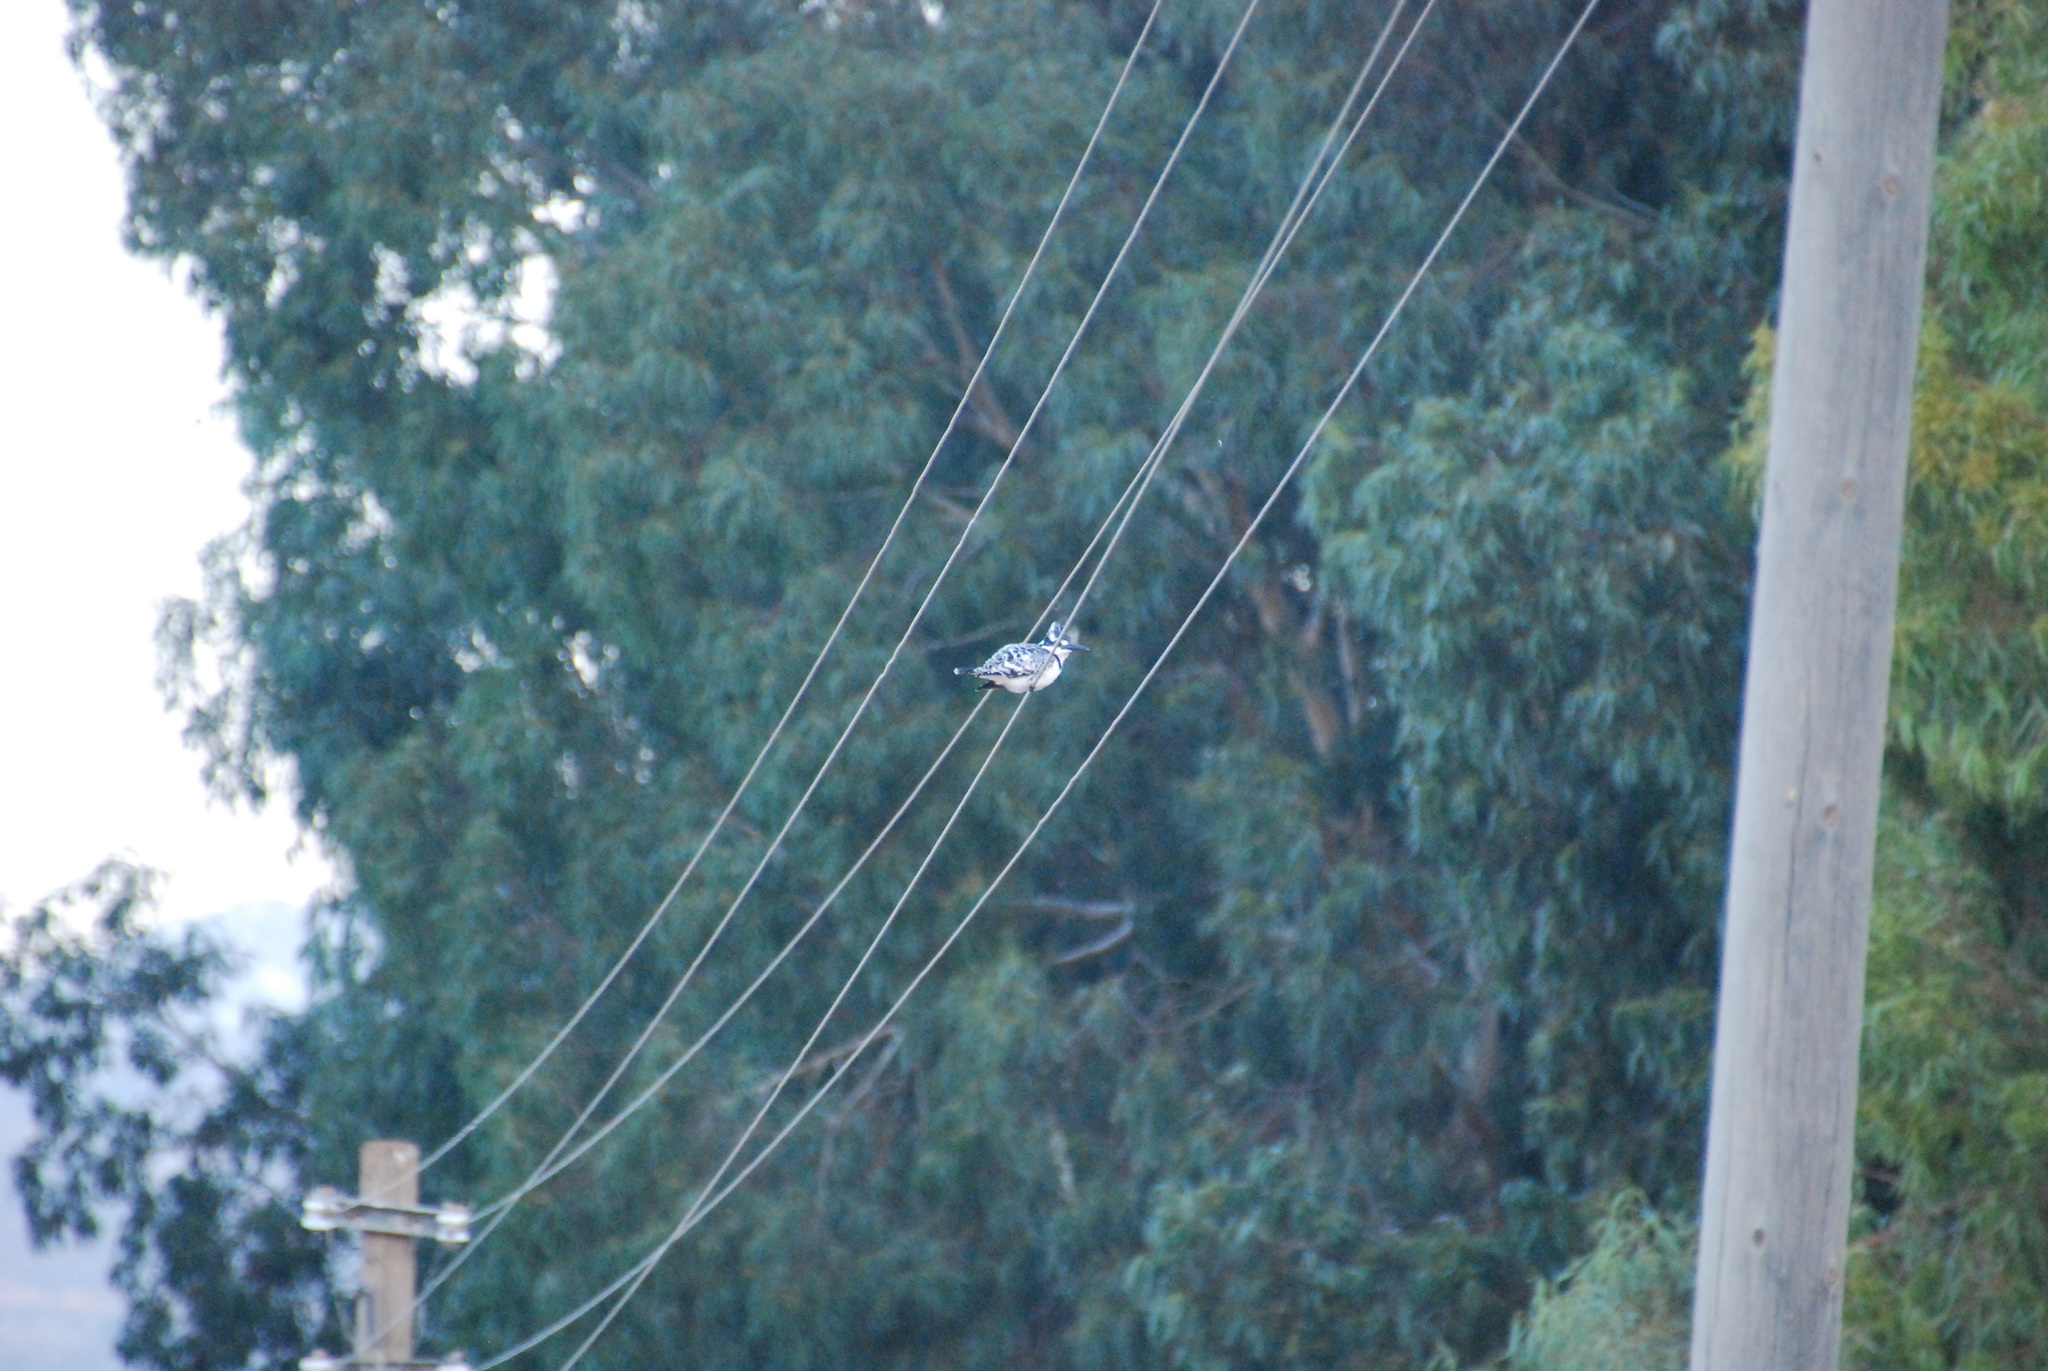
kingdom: Animalia
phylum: Chordata
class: Aves
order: Coraciiformes
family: Alcedinidae
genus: Ceryle
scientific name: Ceryle rudis
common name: Pied kingfisher
